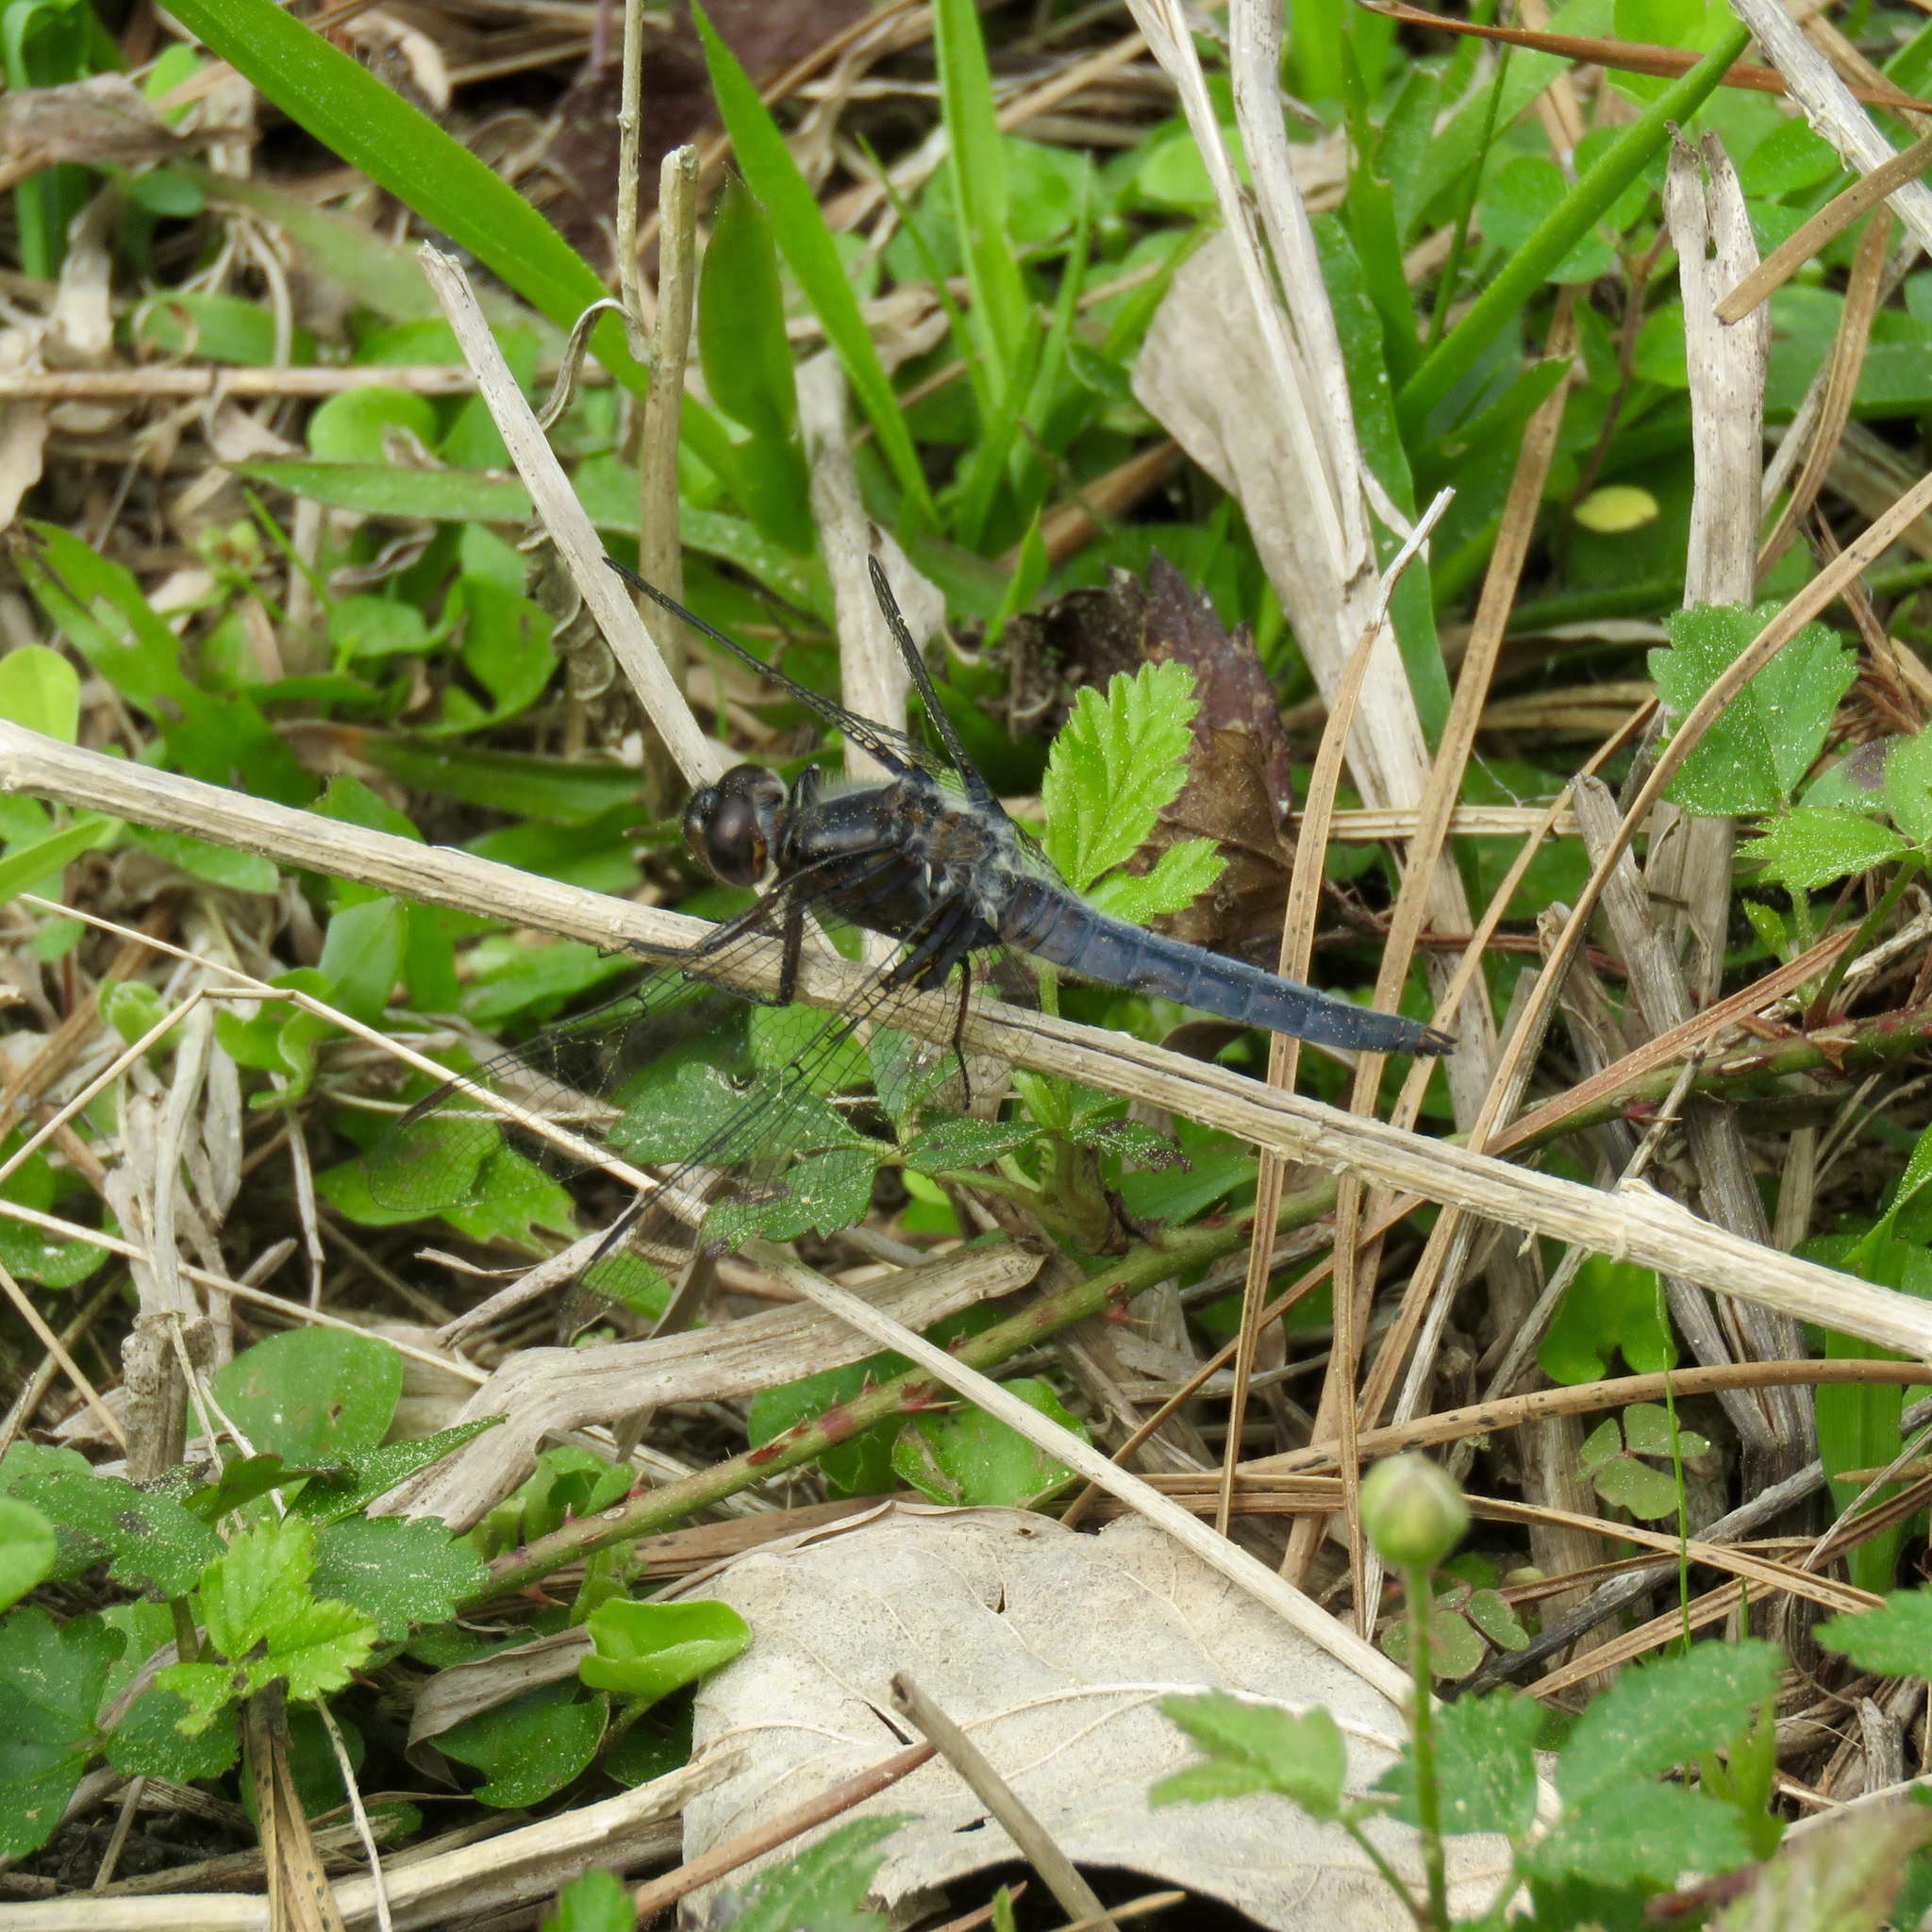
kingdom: Animalia
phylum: Arthropoda
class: Insecta
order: Odonata
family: Libellulidae
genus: Ladona
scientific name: Ladona deplanata
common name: Blue corporal
